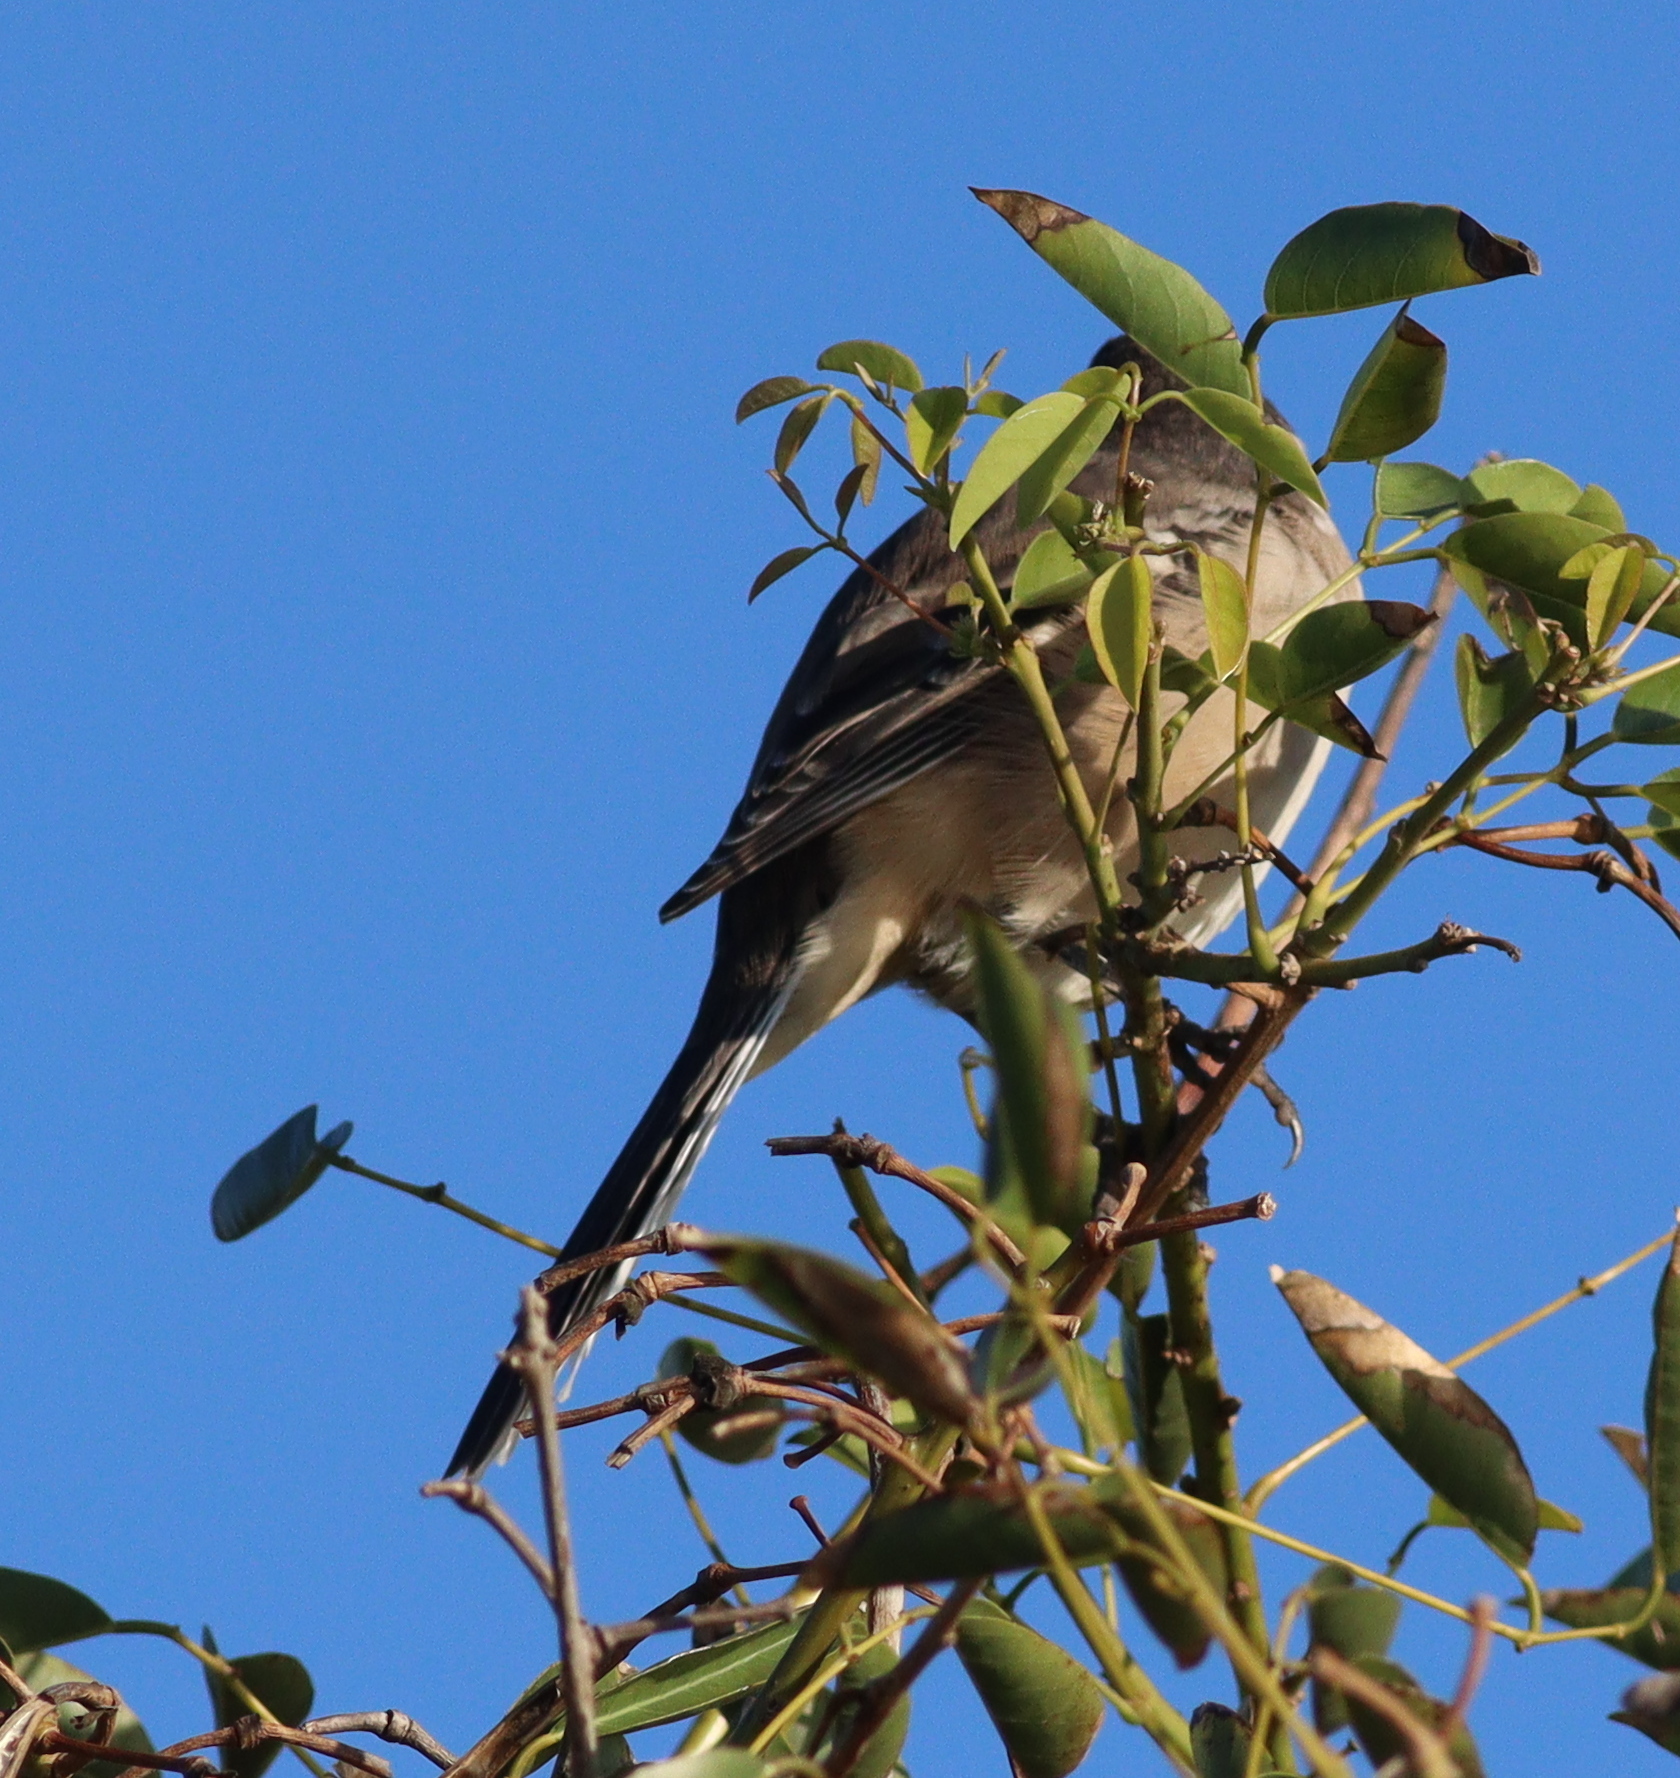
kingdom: Animalia
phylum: Chordata
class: Aves
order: Passeriformes
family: Mimidae
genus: Mimus
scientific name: Mimus saturninus
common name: Chalk-browed mockingbird
